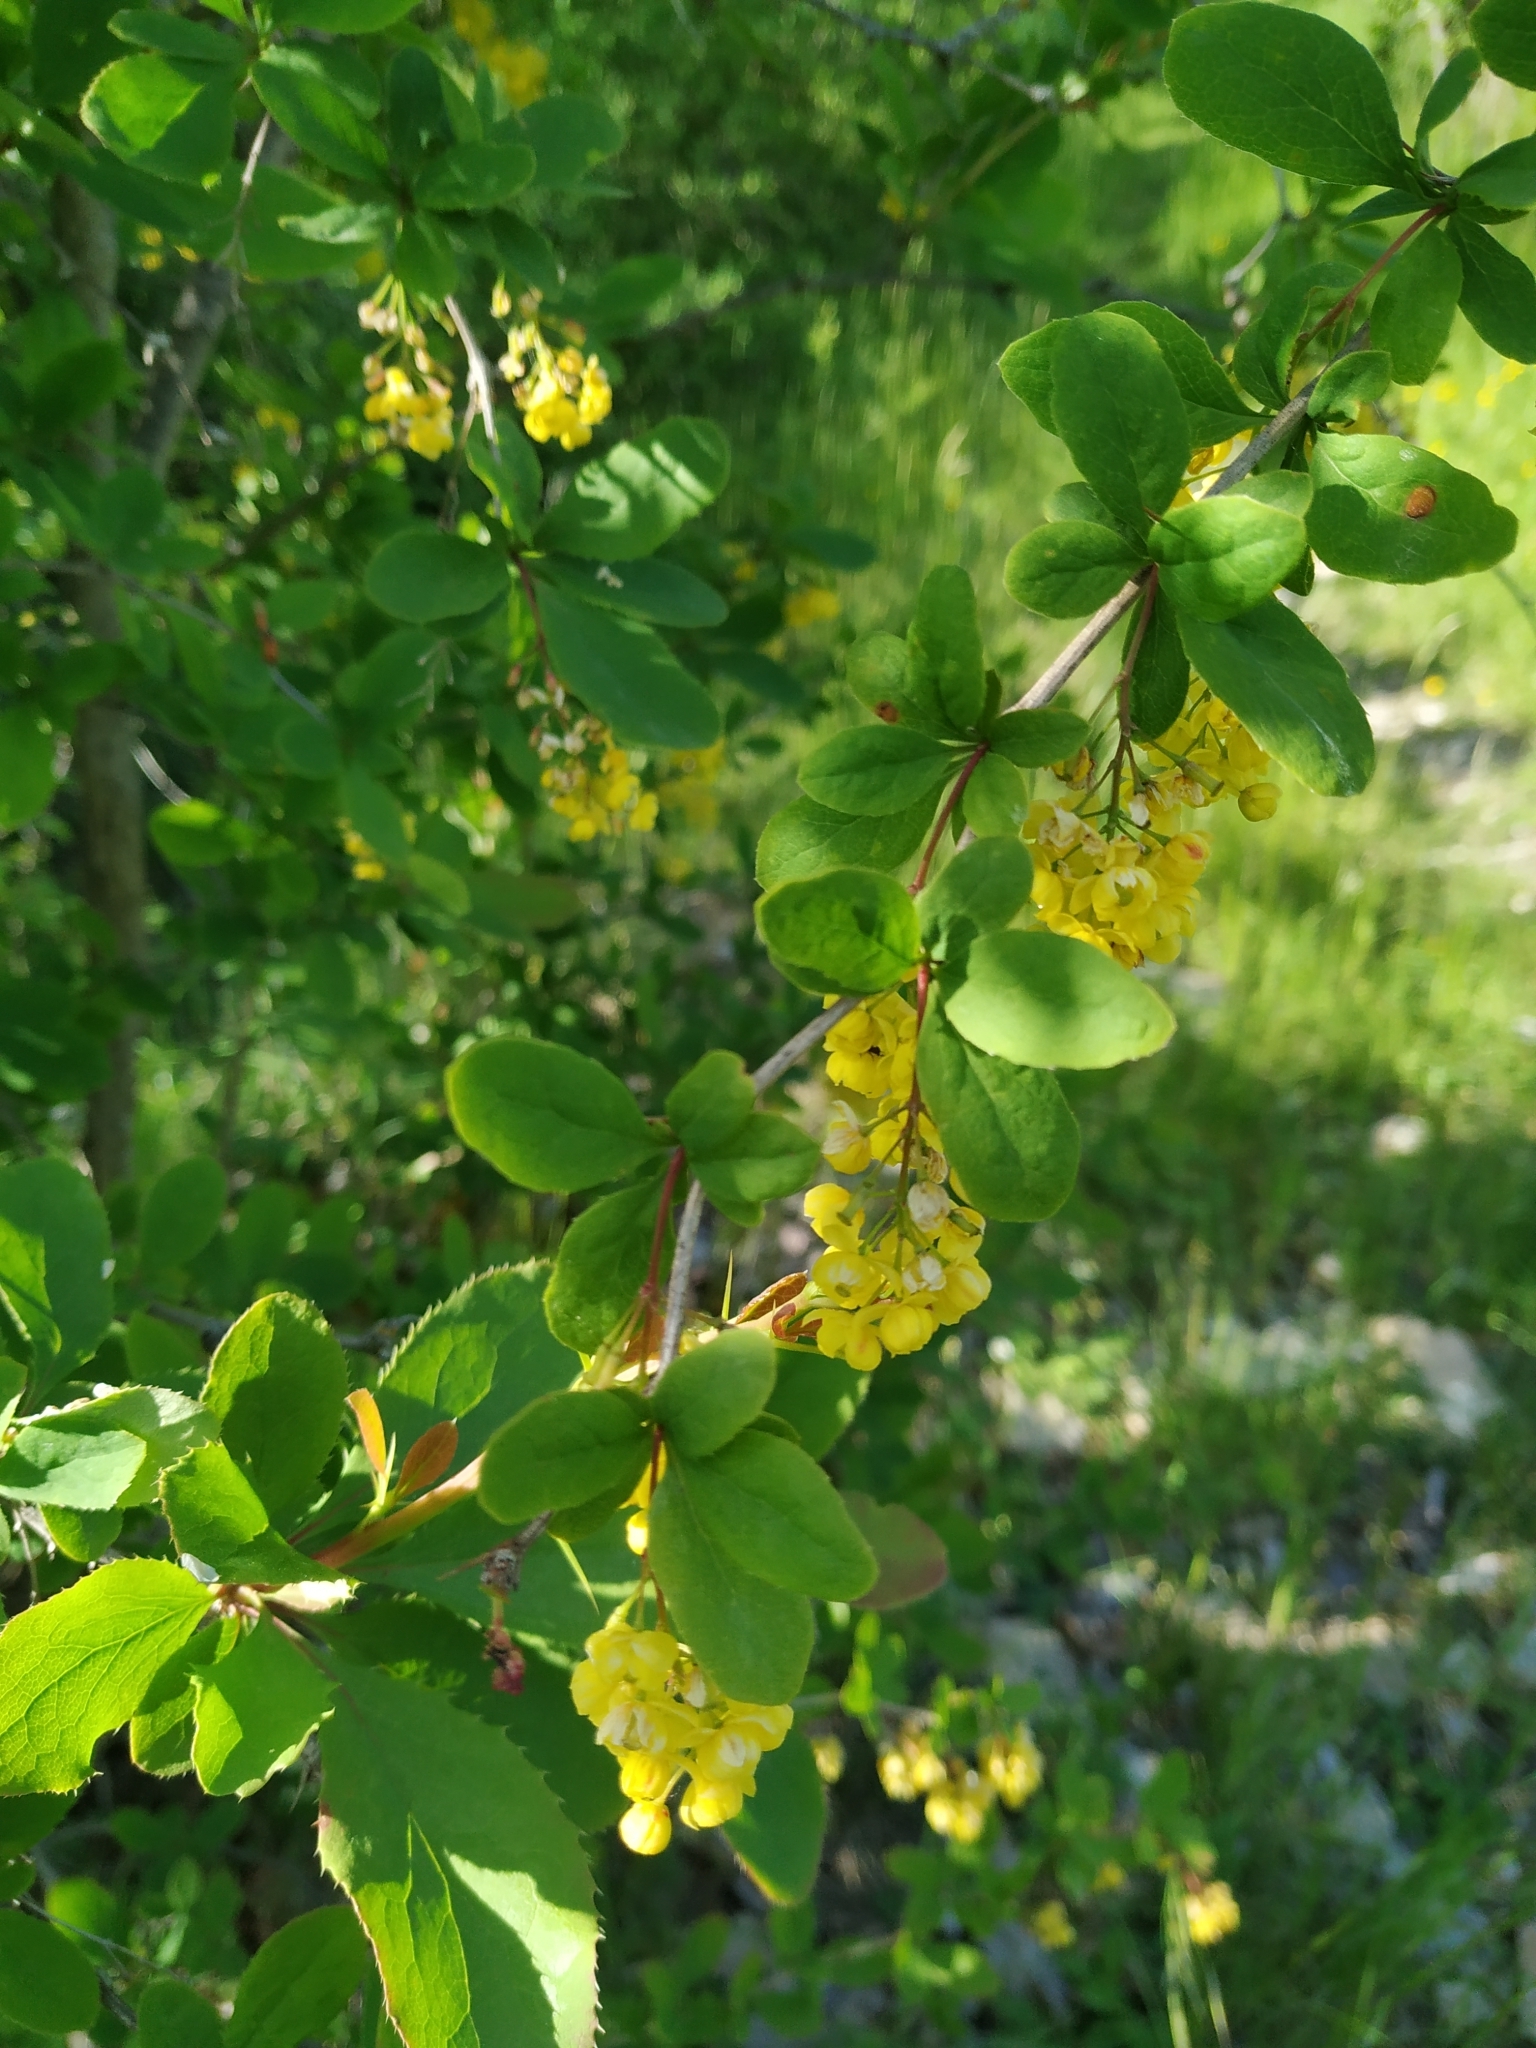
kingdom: Plantae
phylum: Tracheophyta
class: Magnoliopsida
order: Ranunculales
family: Berberidaceae
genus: Berberis
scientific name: Berberis vulgaris
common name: Barberry
